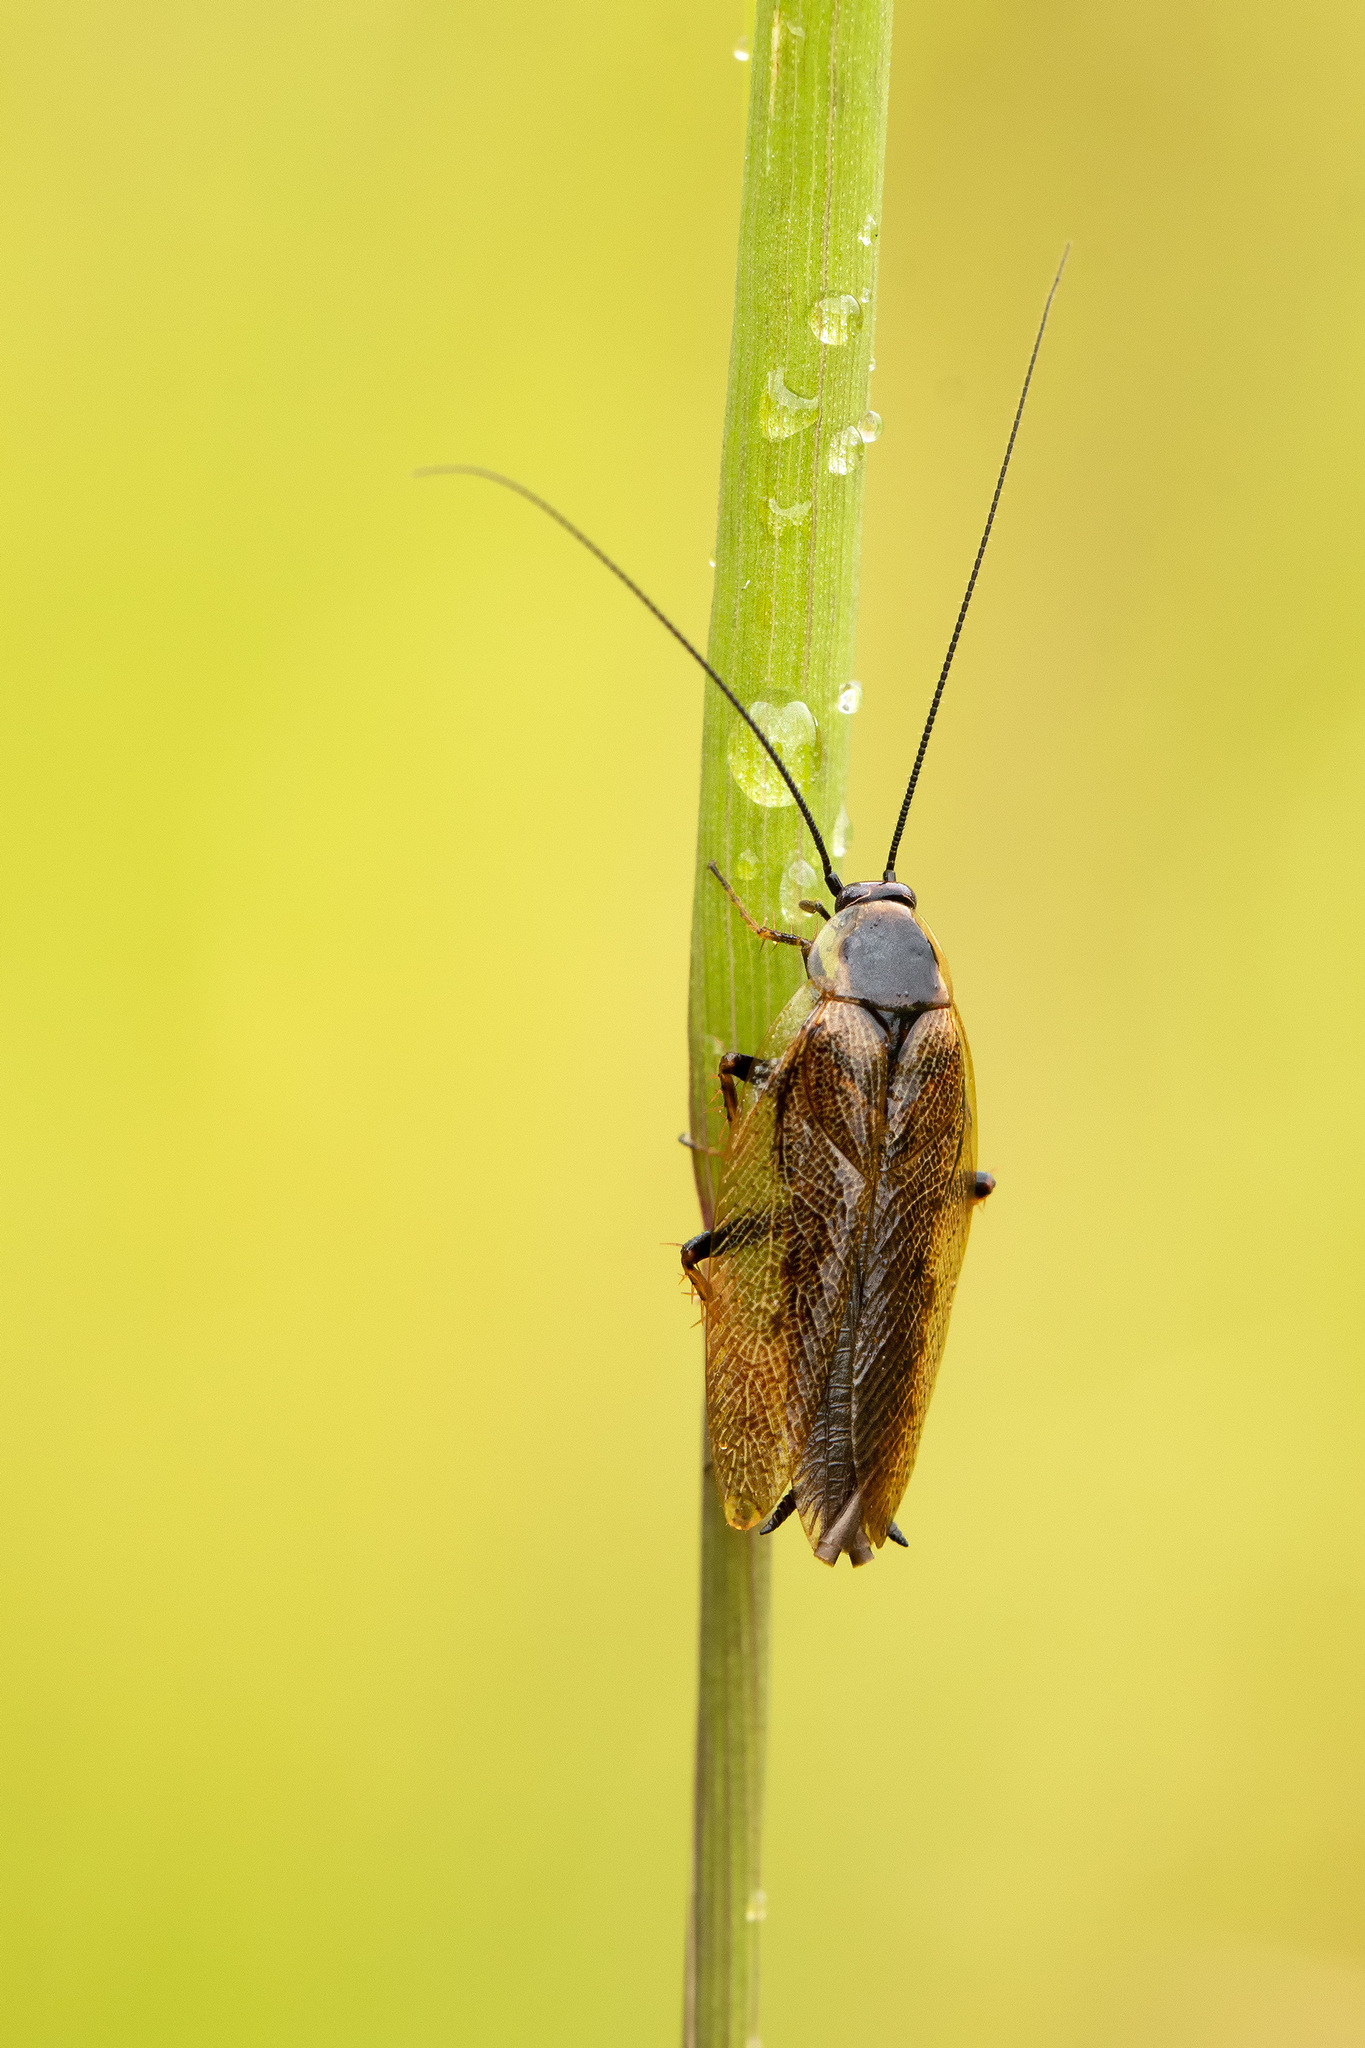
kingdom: Animalia
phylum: Arthropoda
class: Insecta
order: Blattodea
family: Ectobiidae
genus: Ectobius
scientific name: Ectobius lapponicus
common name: Dusky cockroach
